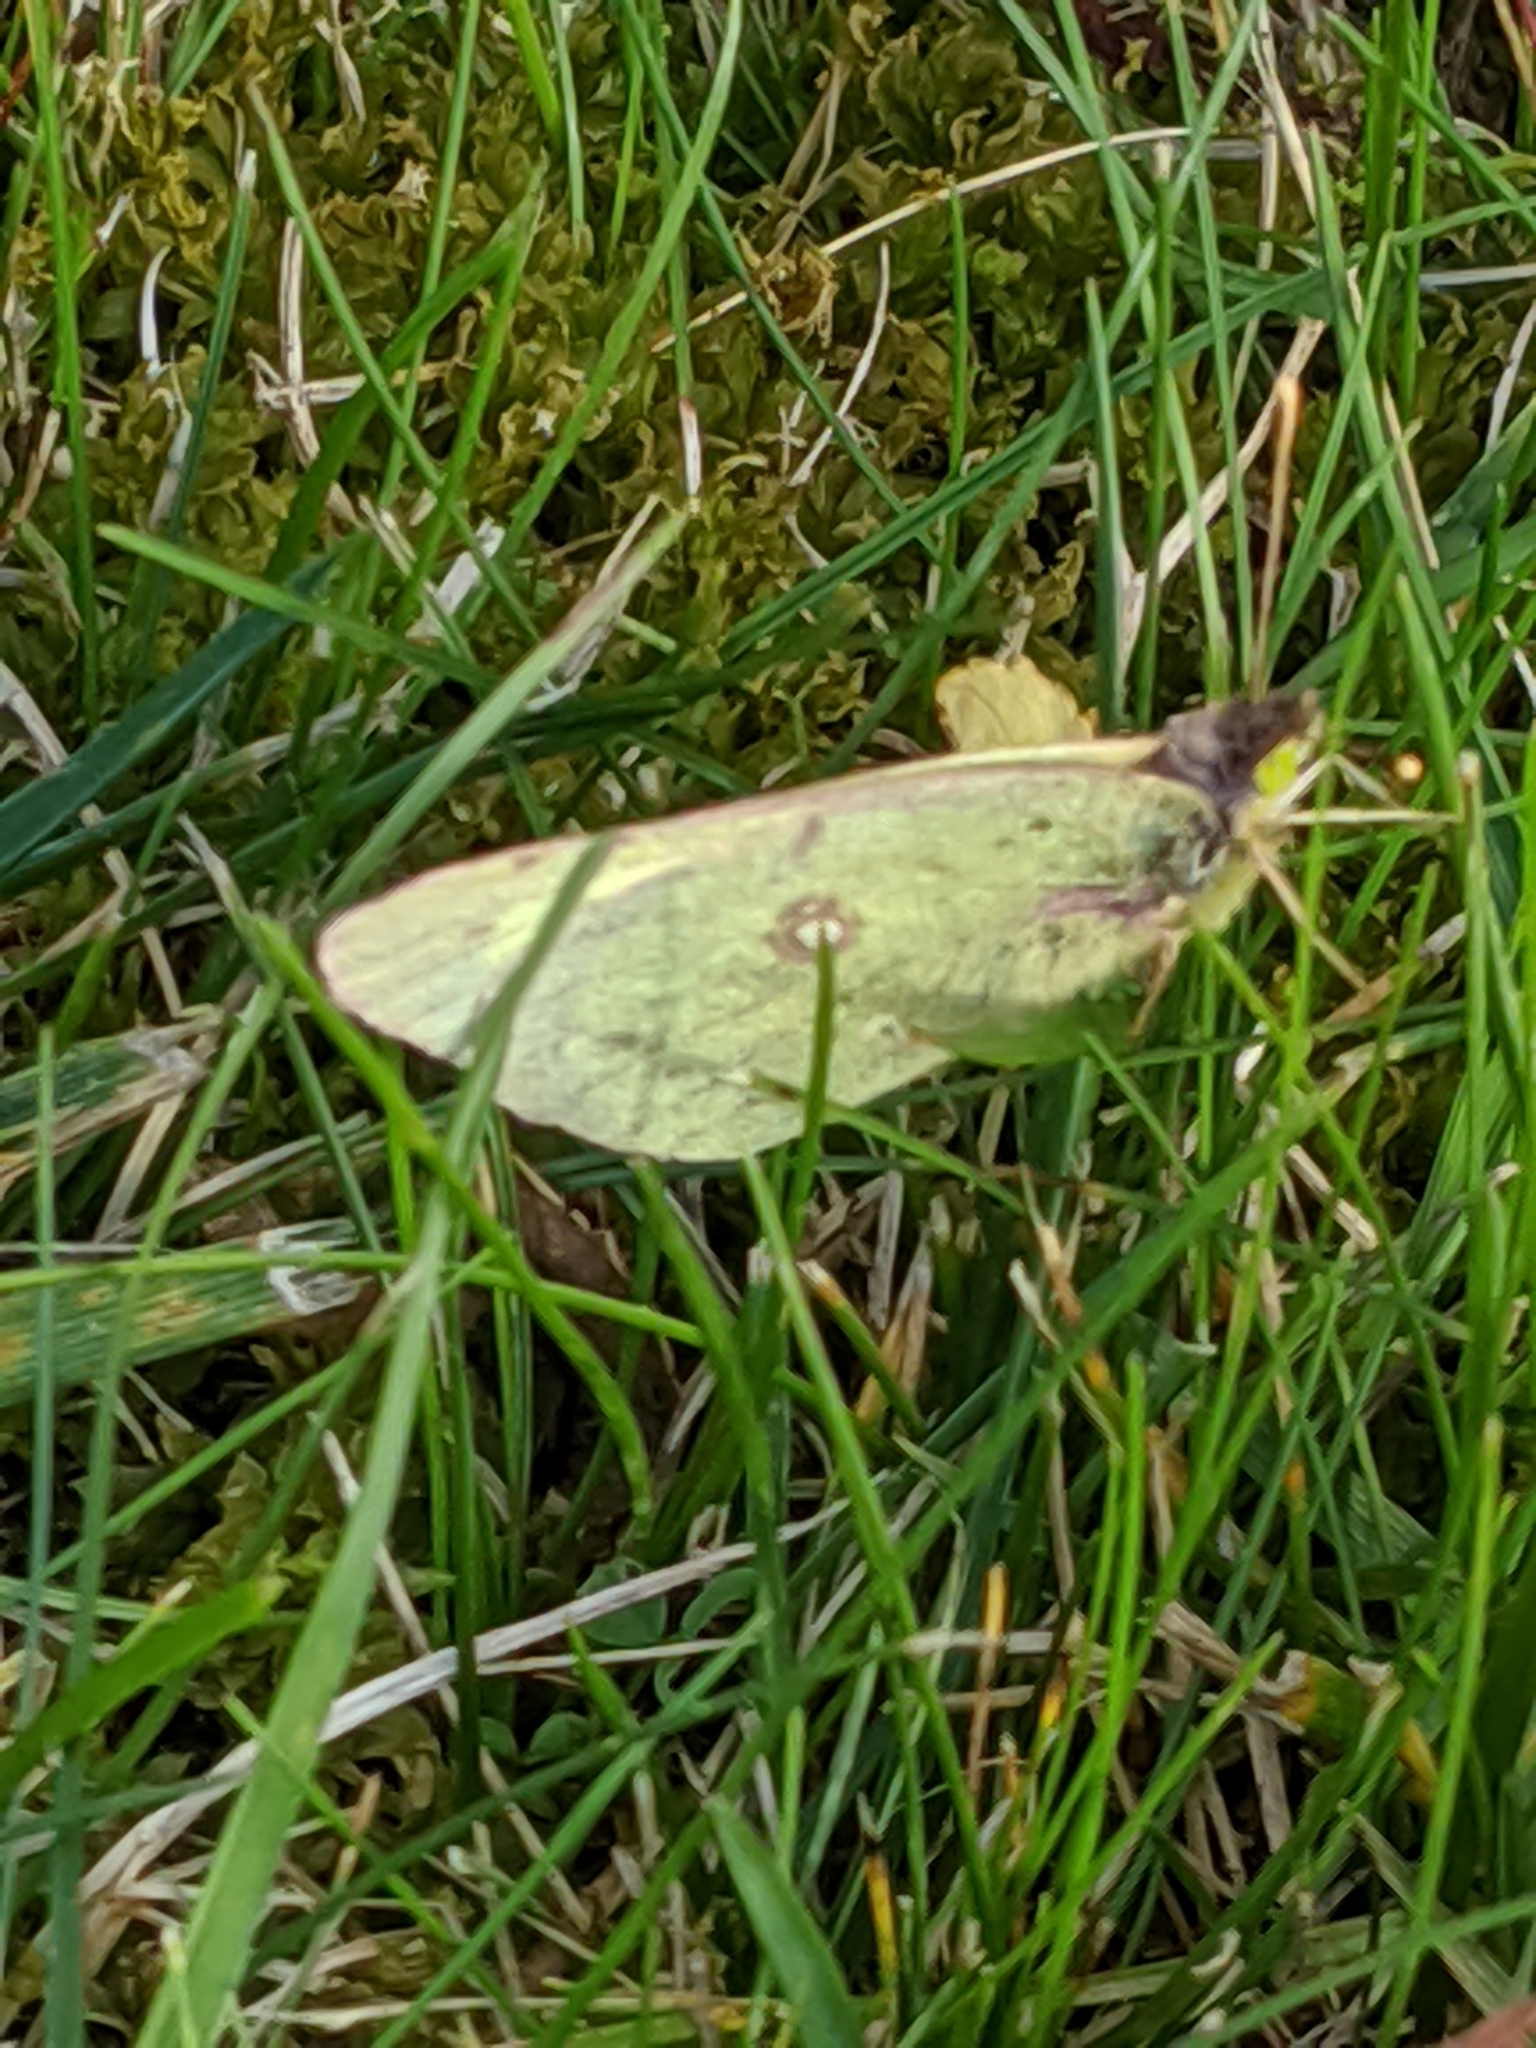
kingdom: Animalia
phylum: Arthropoda
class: Insecta
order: Lepidoptera
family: Pieridae
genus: Colias
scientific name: Colias philodice
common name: Clouded sulphur
